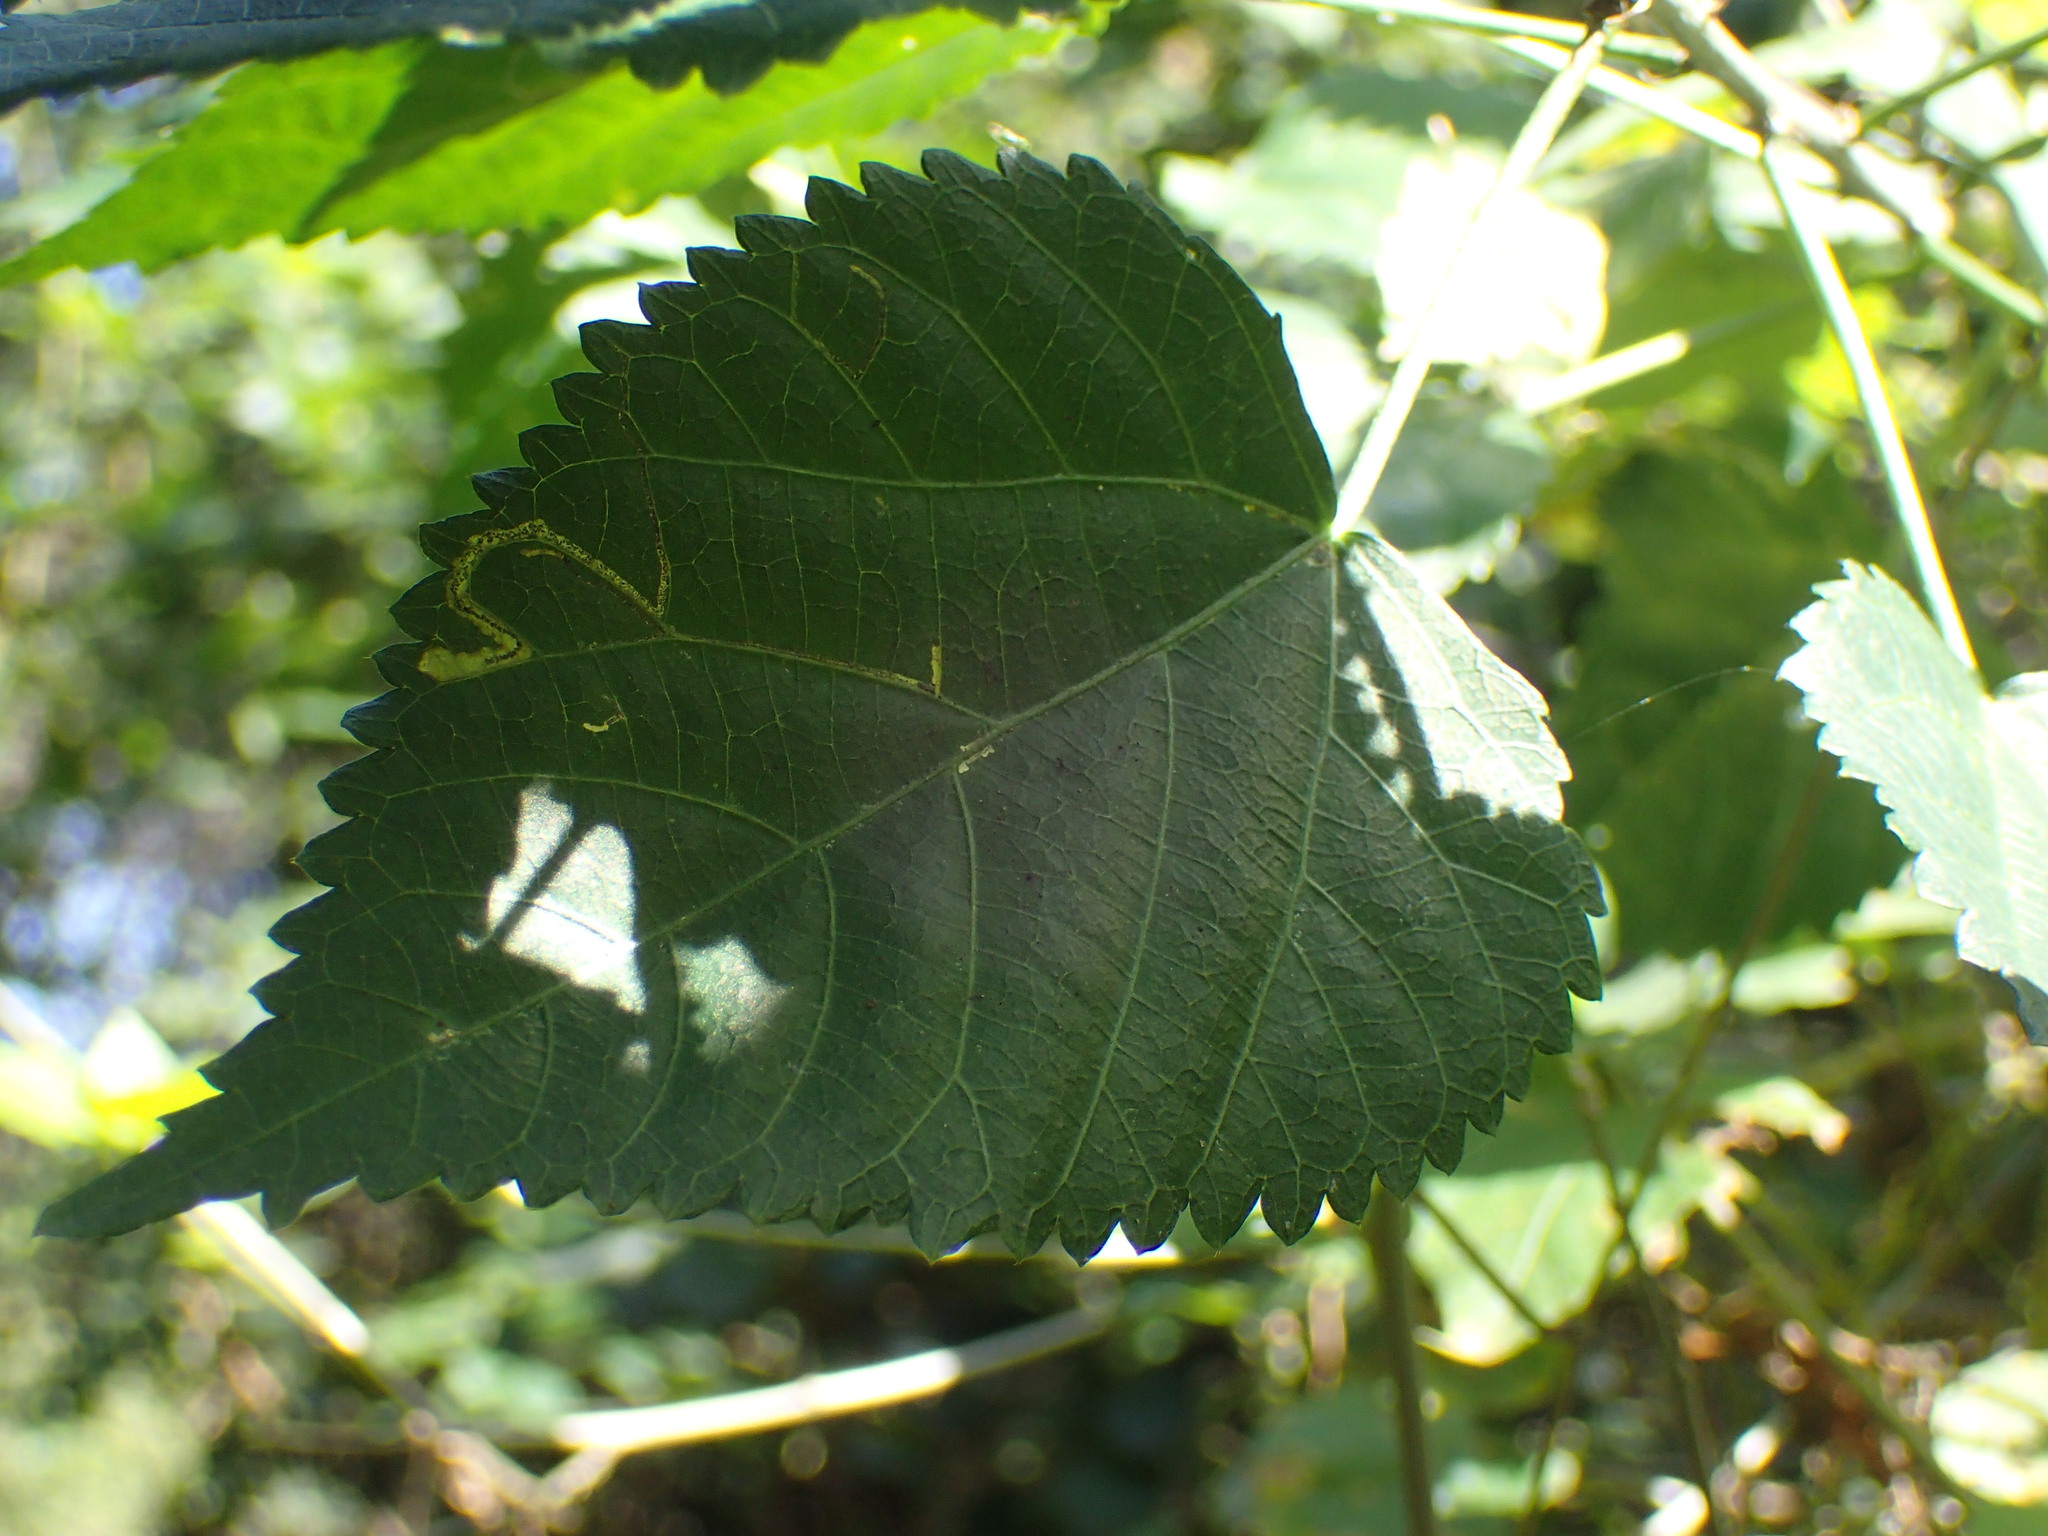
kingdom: Plantae
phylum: Tracheophyta
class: Magnoliopsida
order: Malpighiales
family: Euphorbiaceae
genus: Acalypha
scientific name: Acalypha glabrata
